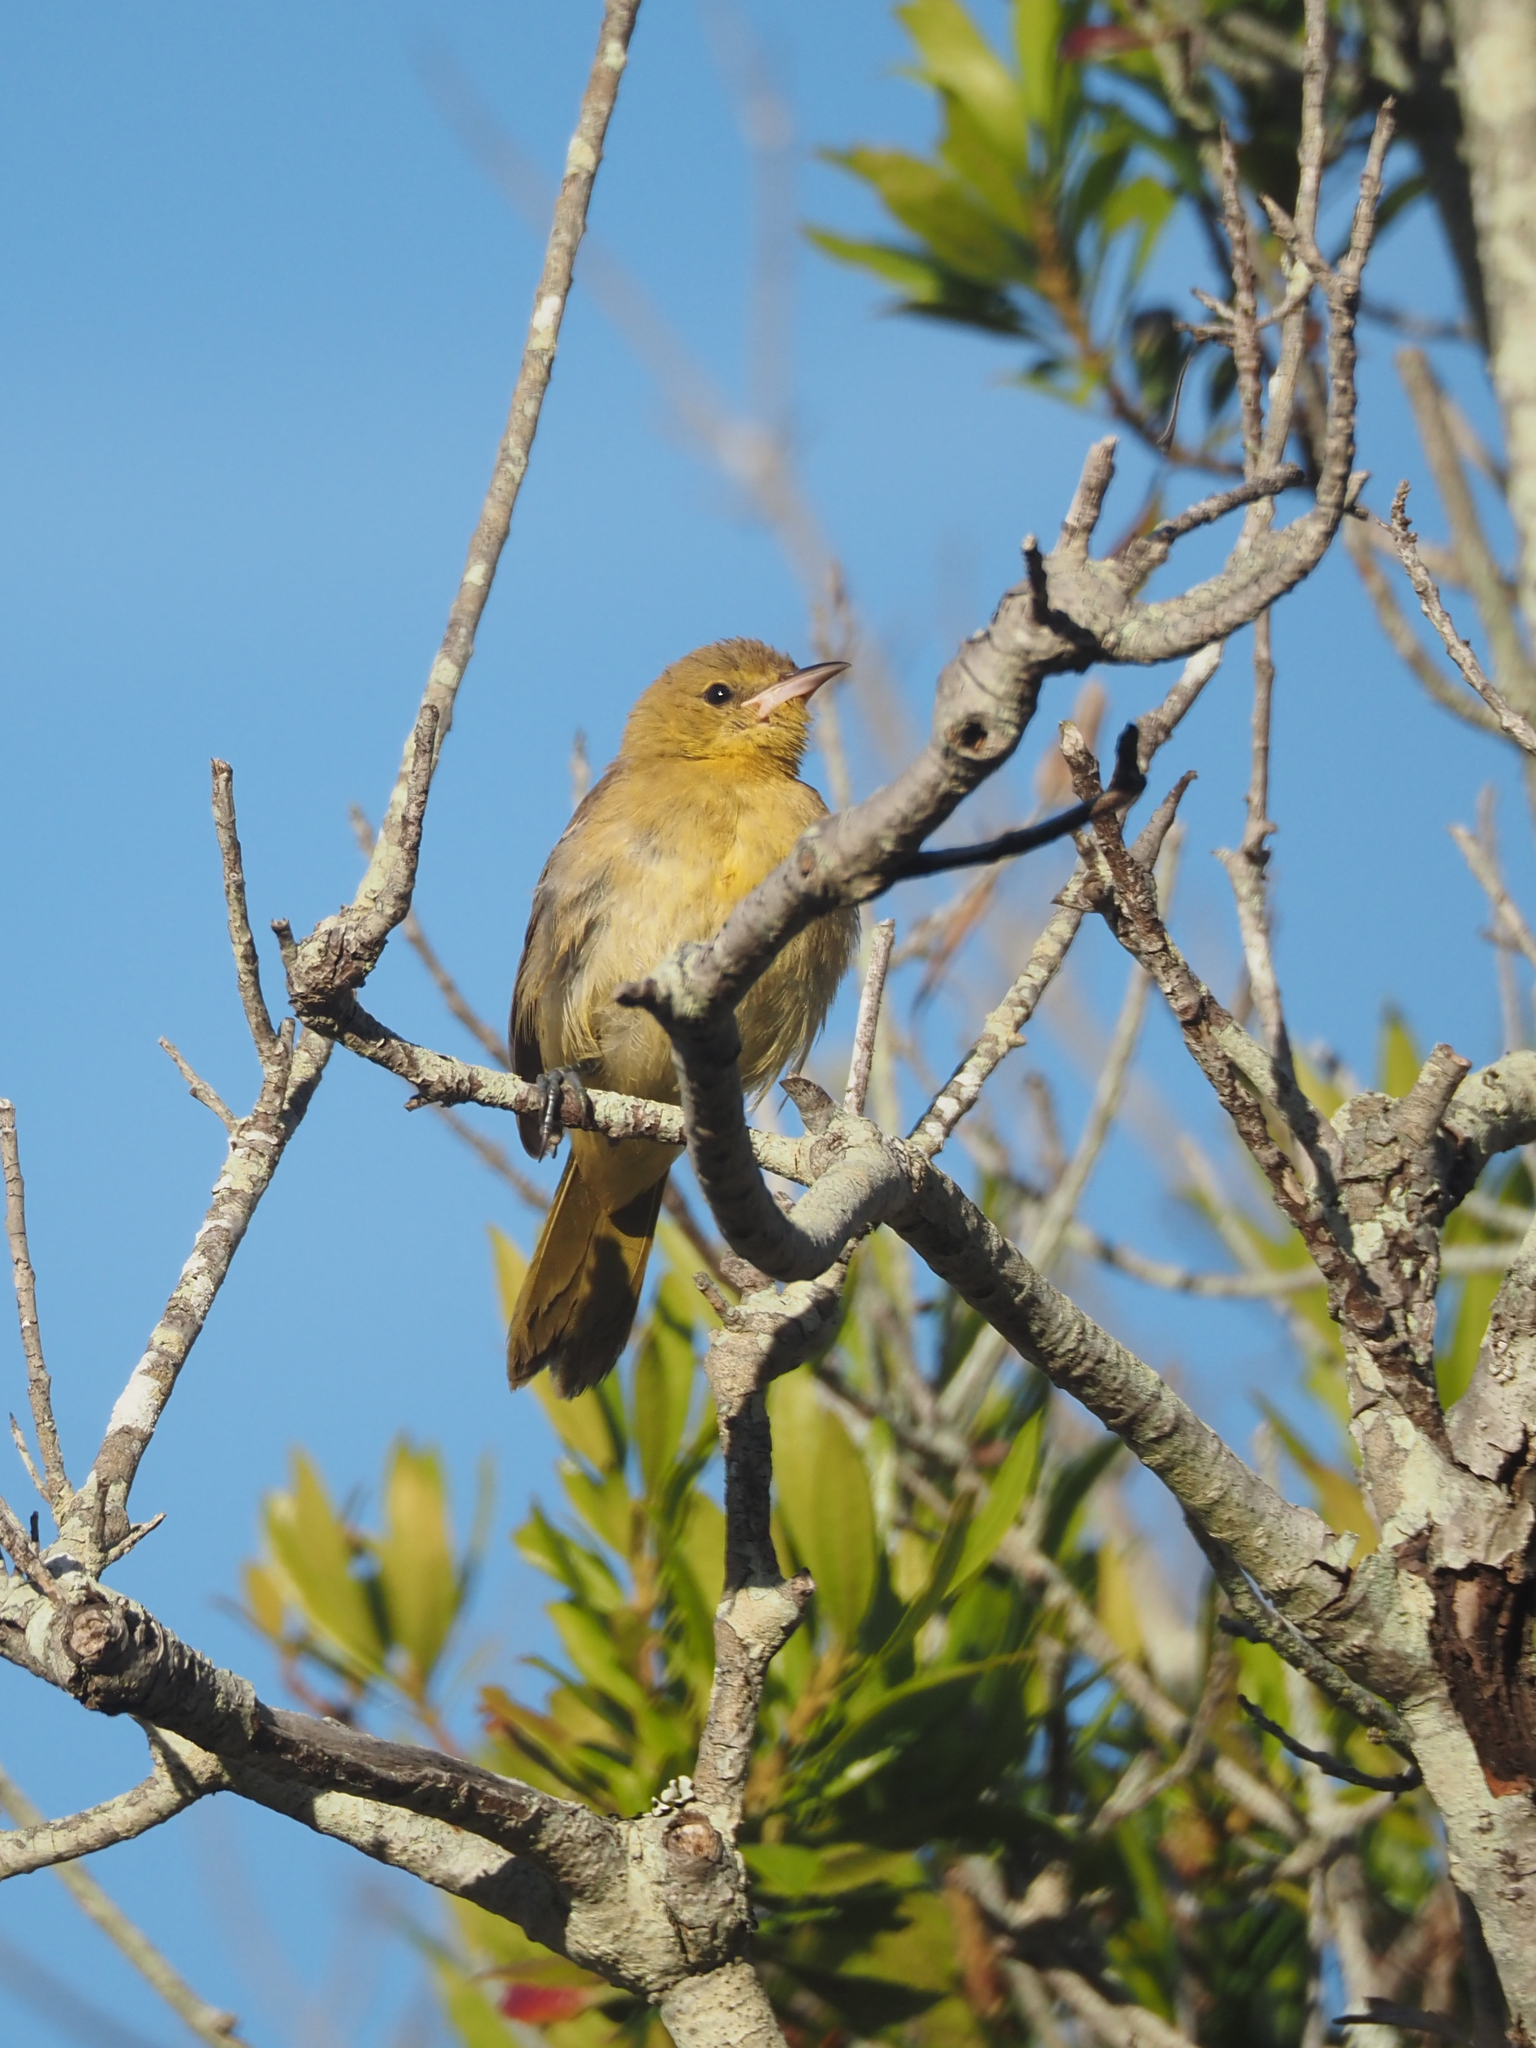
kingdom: Animalia
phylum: Chordata
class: Aves
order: Passeriformes
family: Icteridae
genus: Icterus
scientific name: Icterus bullockii
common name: Bullock's oriole
